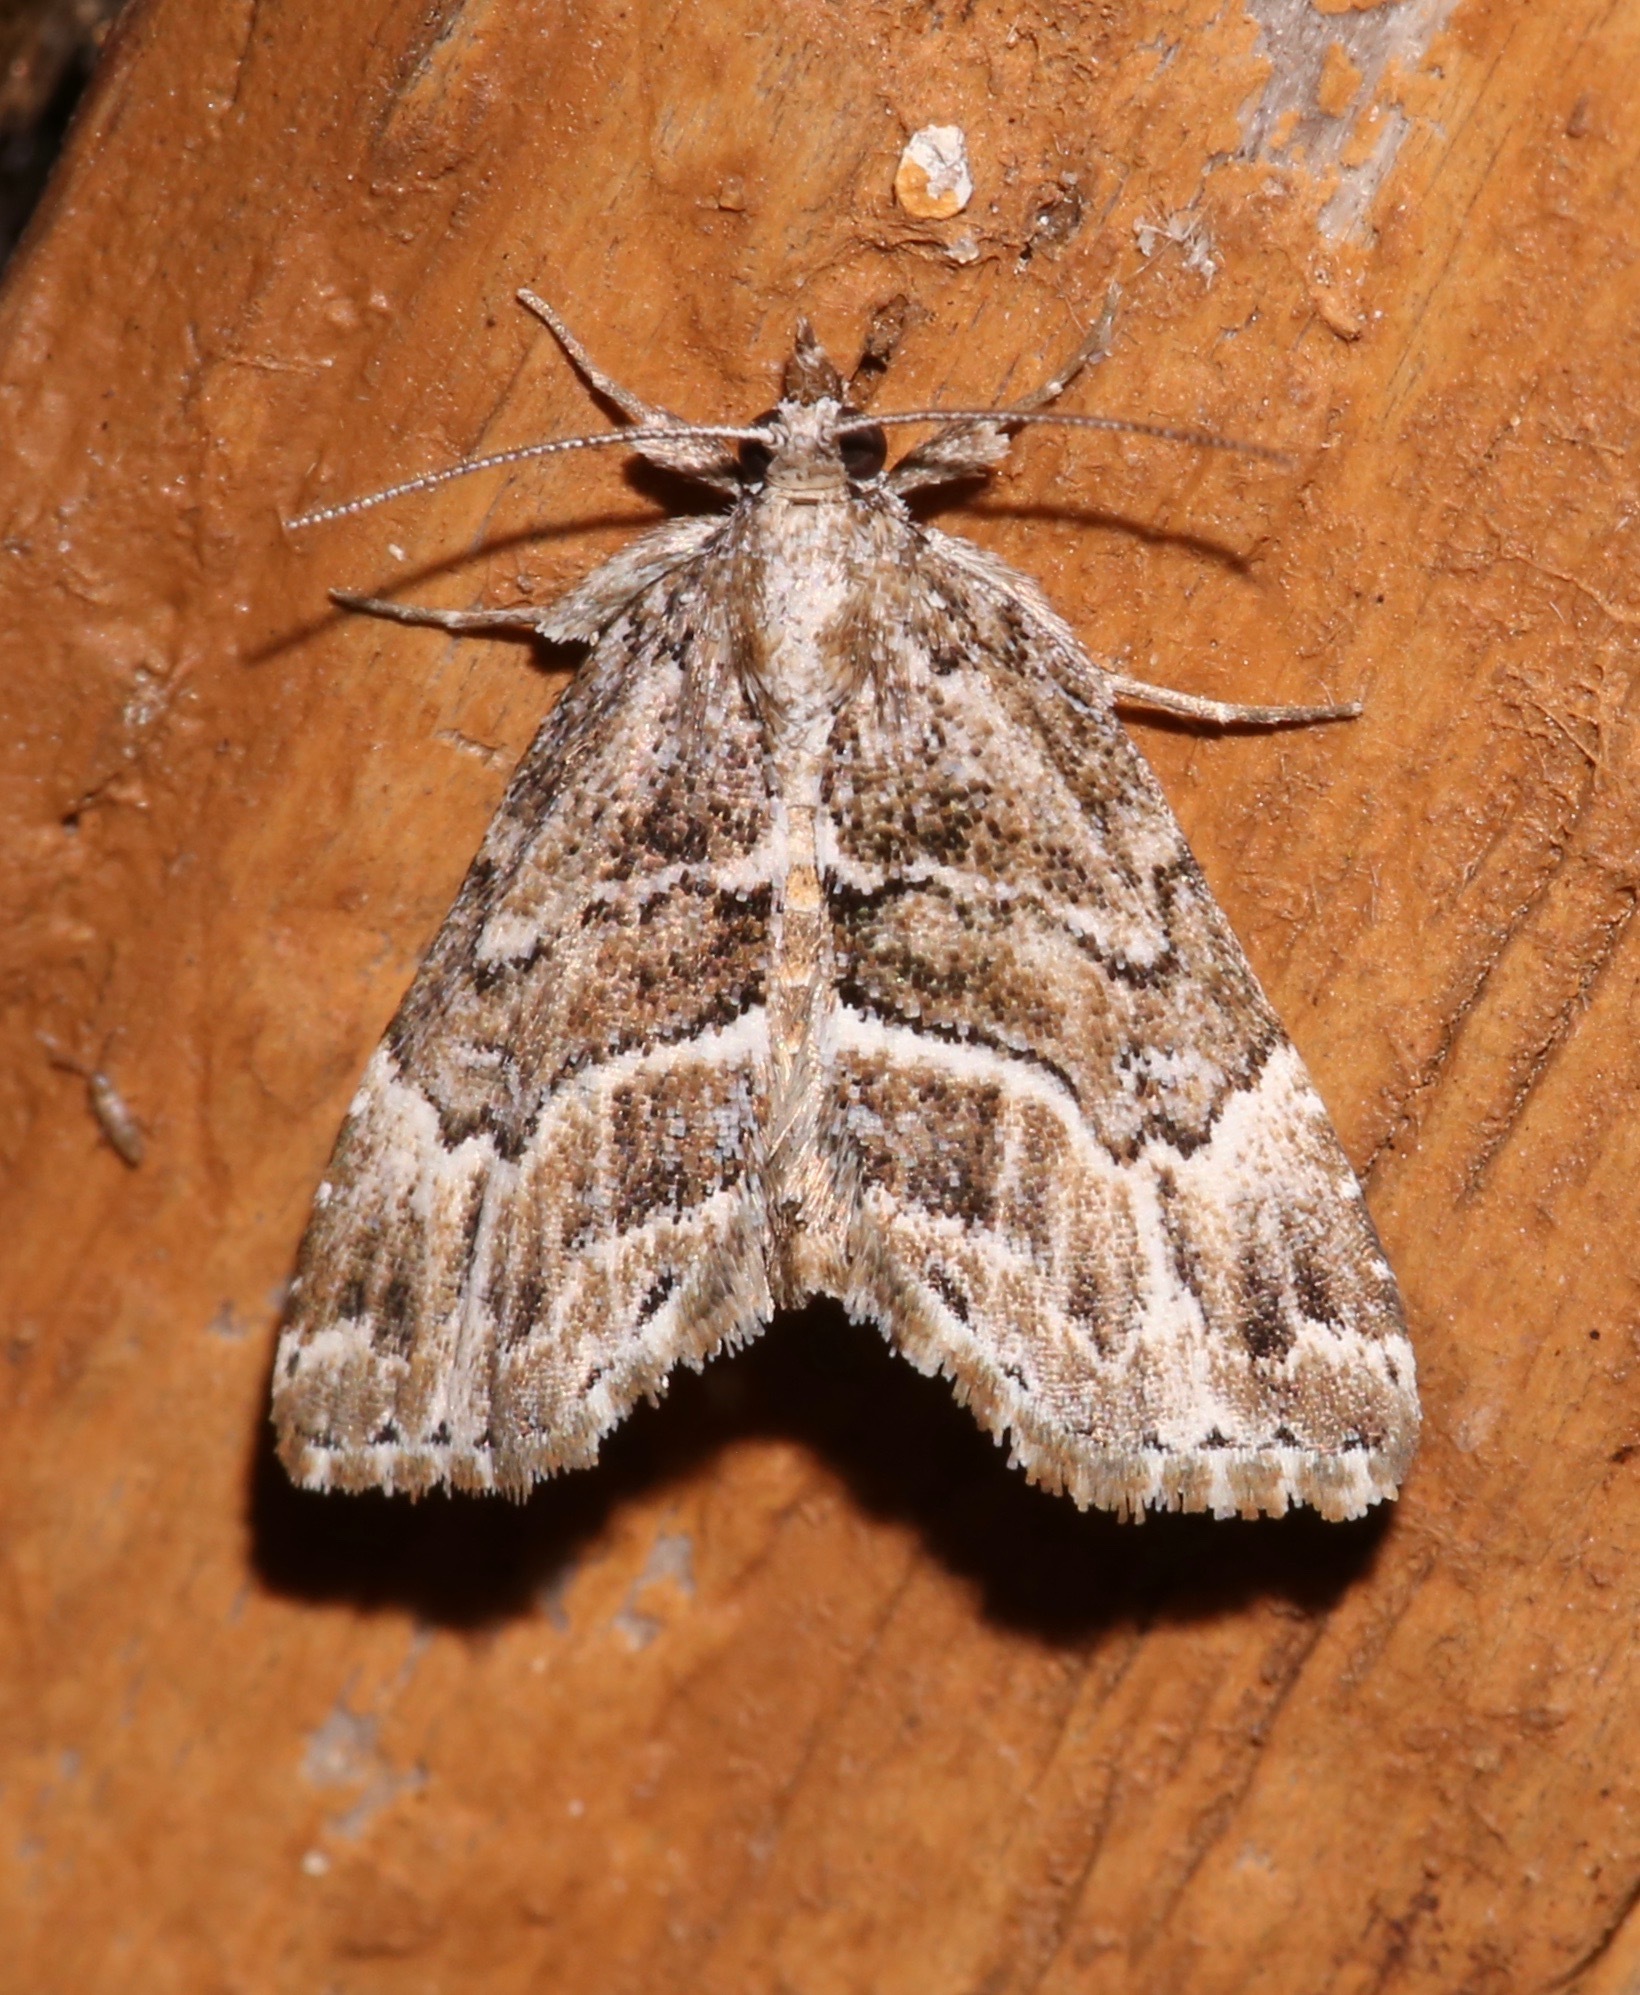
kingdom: Animalia
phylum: Arthropoda
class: Insecta
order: Lepidoptera
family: Erebidae
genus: Cutina
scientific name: Cutina arcuata
